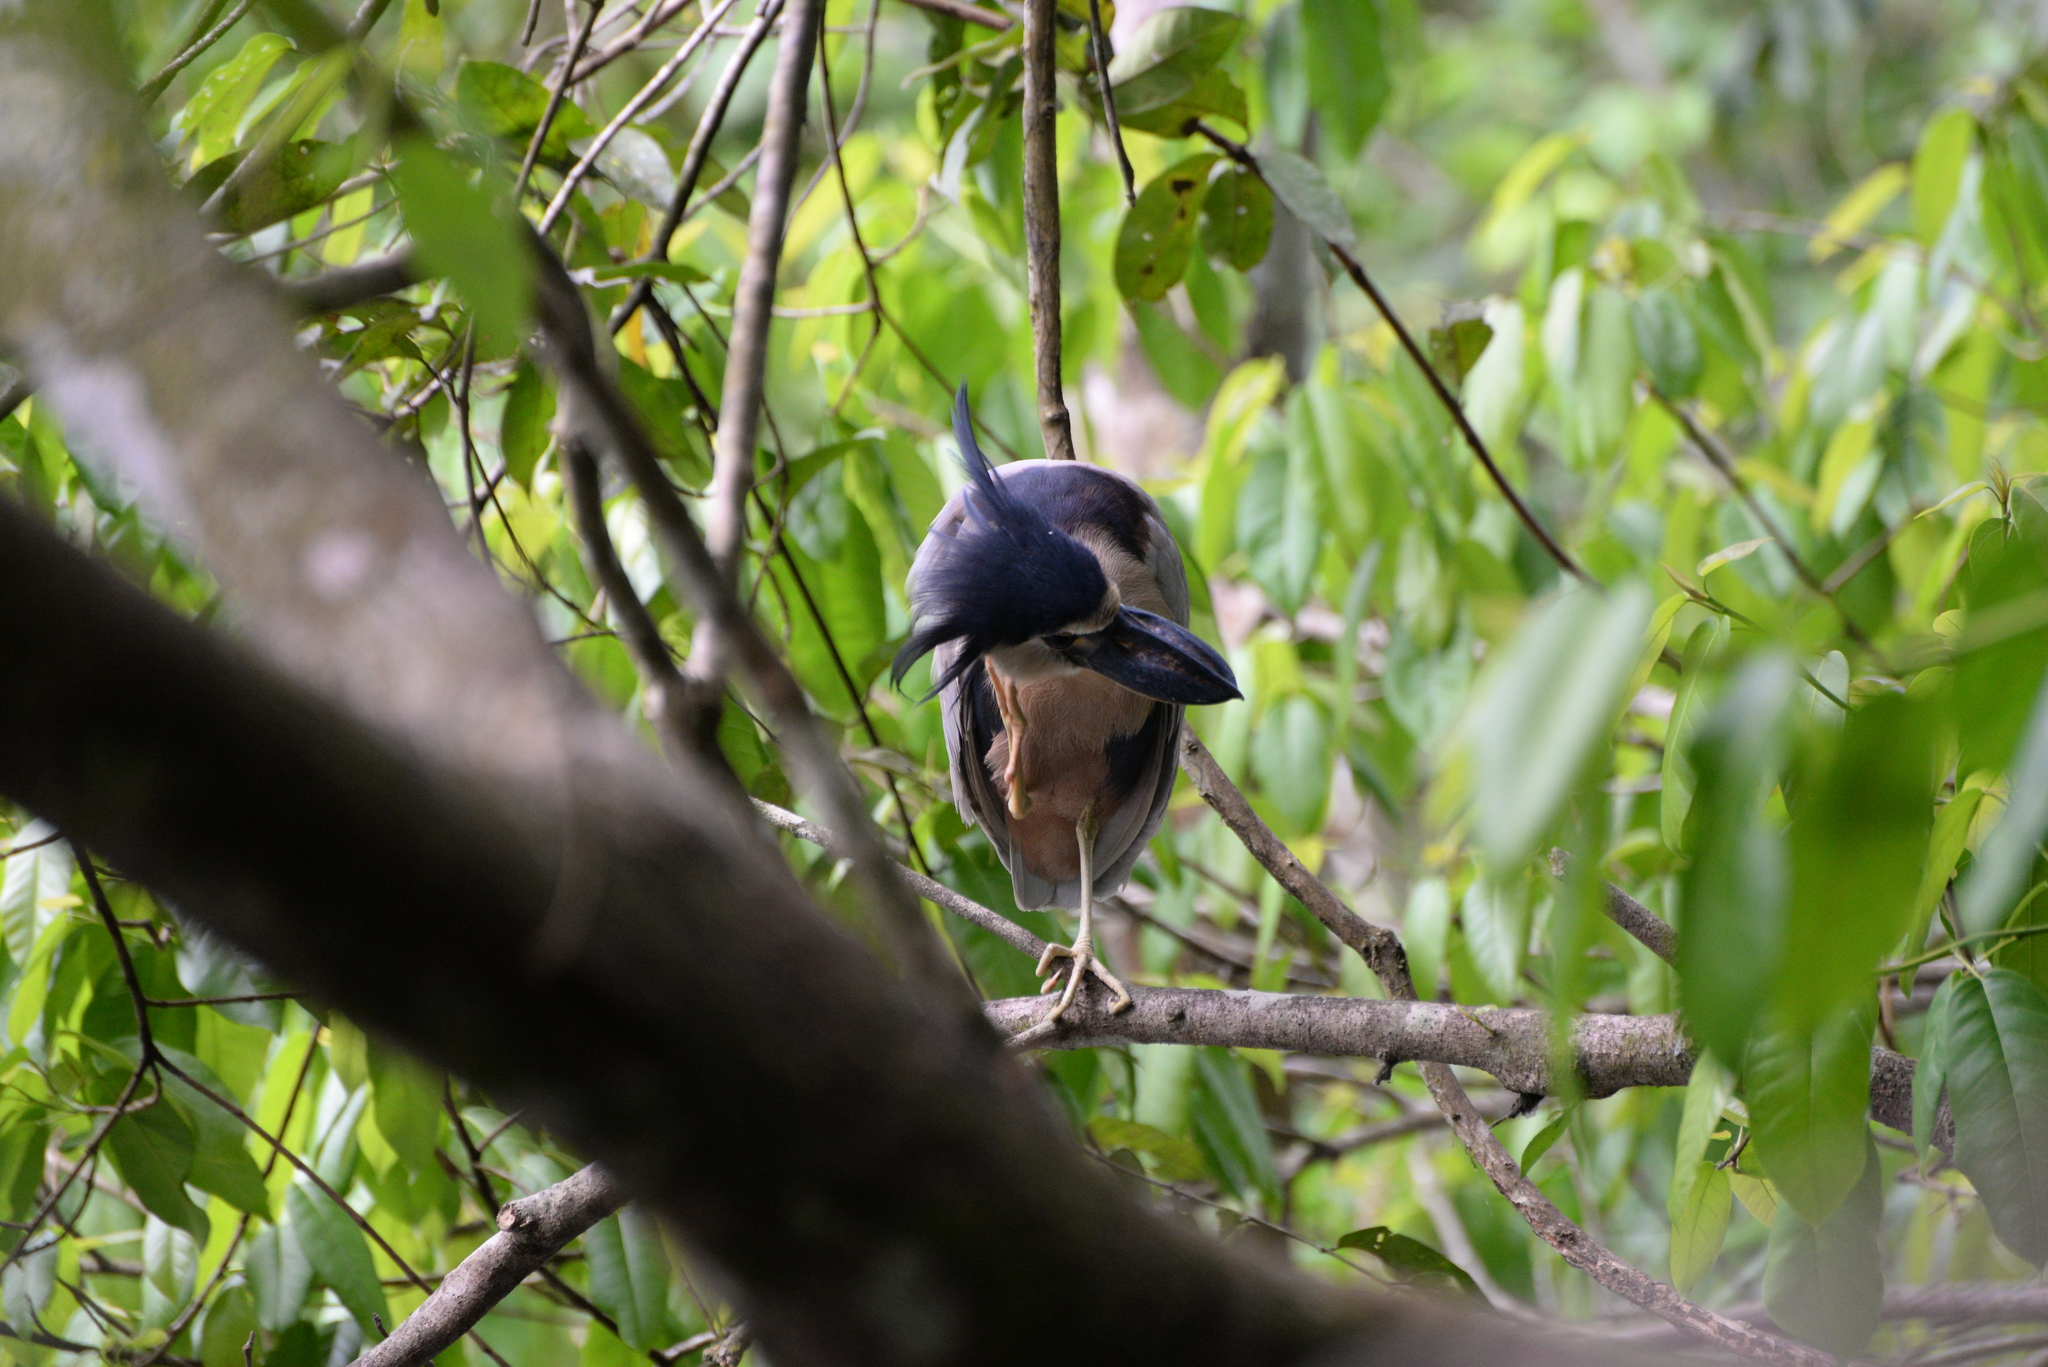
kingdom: Animalia
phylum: Chordata
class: Aves
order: Pelecaniformes
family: Ardeidae
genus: Cochlearius
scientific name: Cochlearius cochlearius
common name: Boat-billed heron
